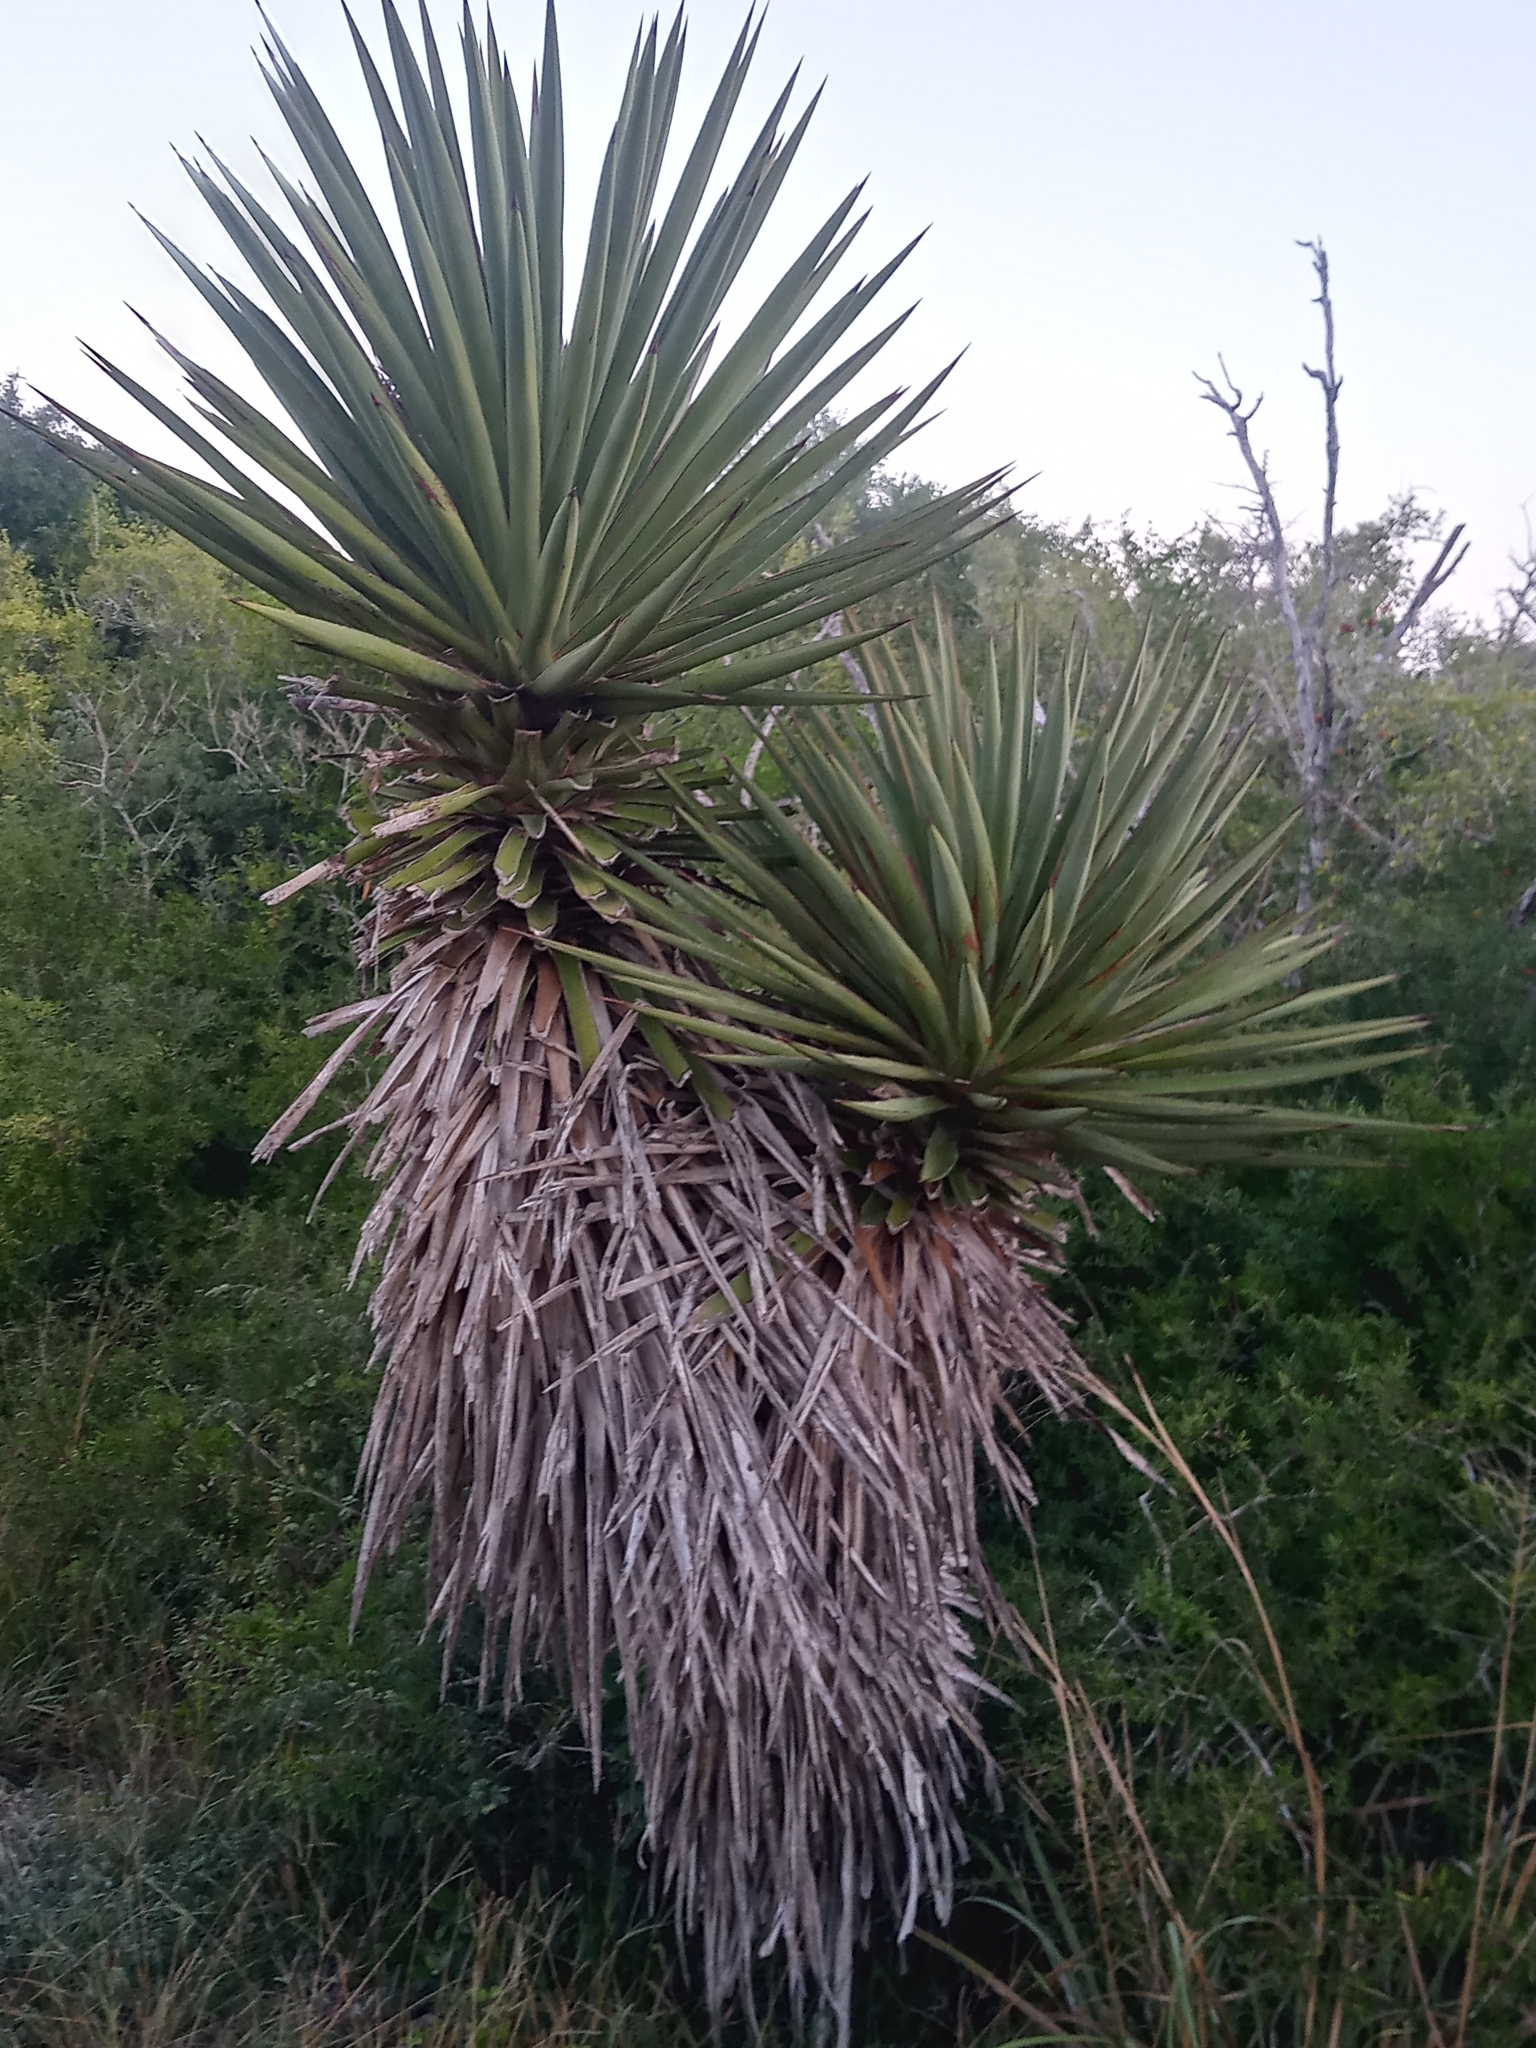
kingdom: Plantae
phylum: Tracheophyta
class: Liliopsida
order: Asparagales
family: Asparagaceae
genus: Yucca
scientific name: Yucca treculiana
